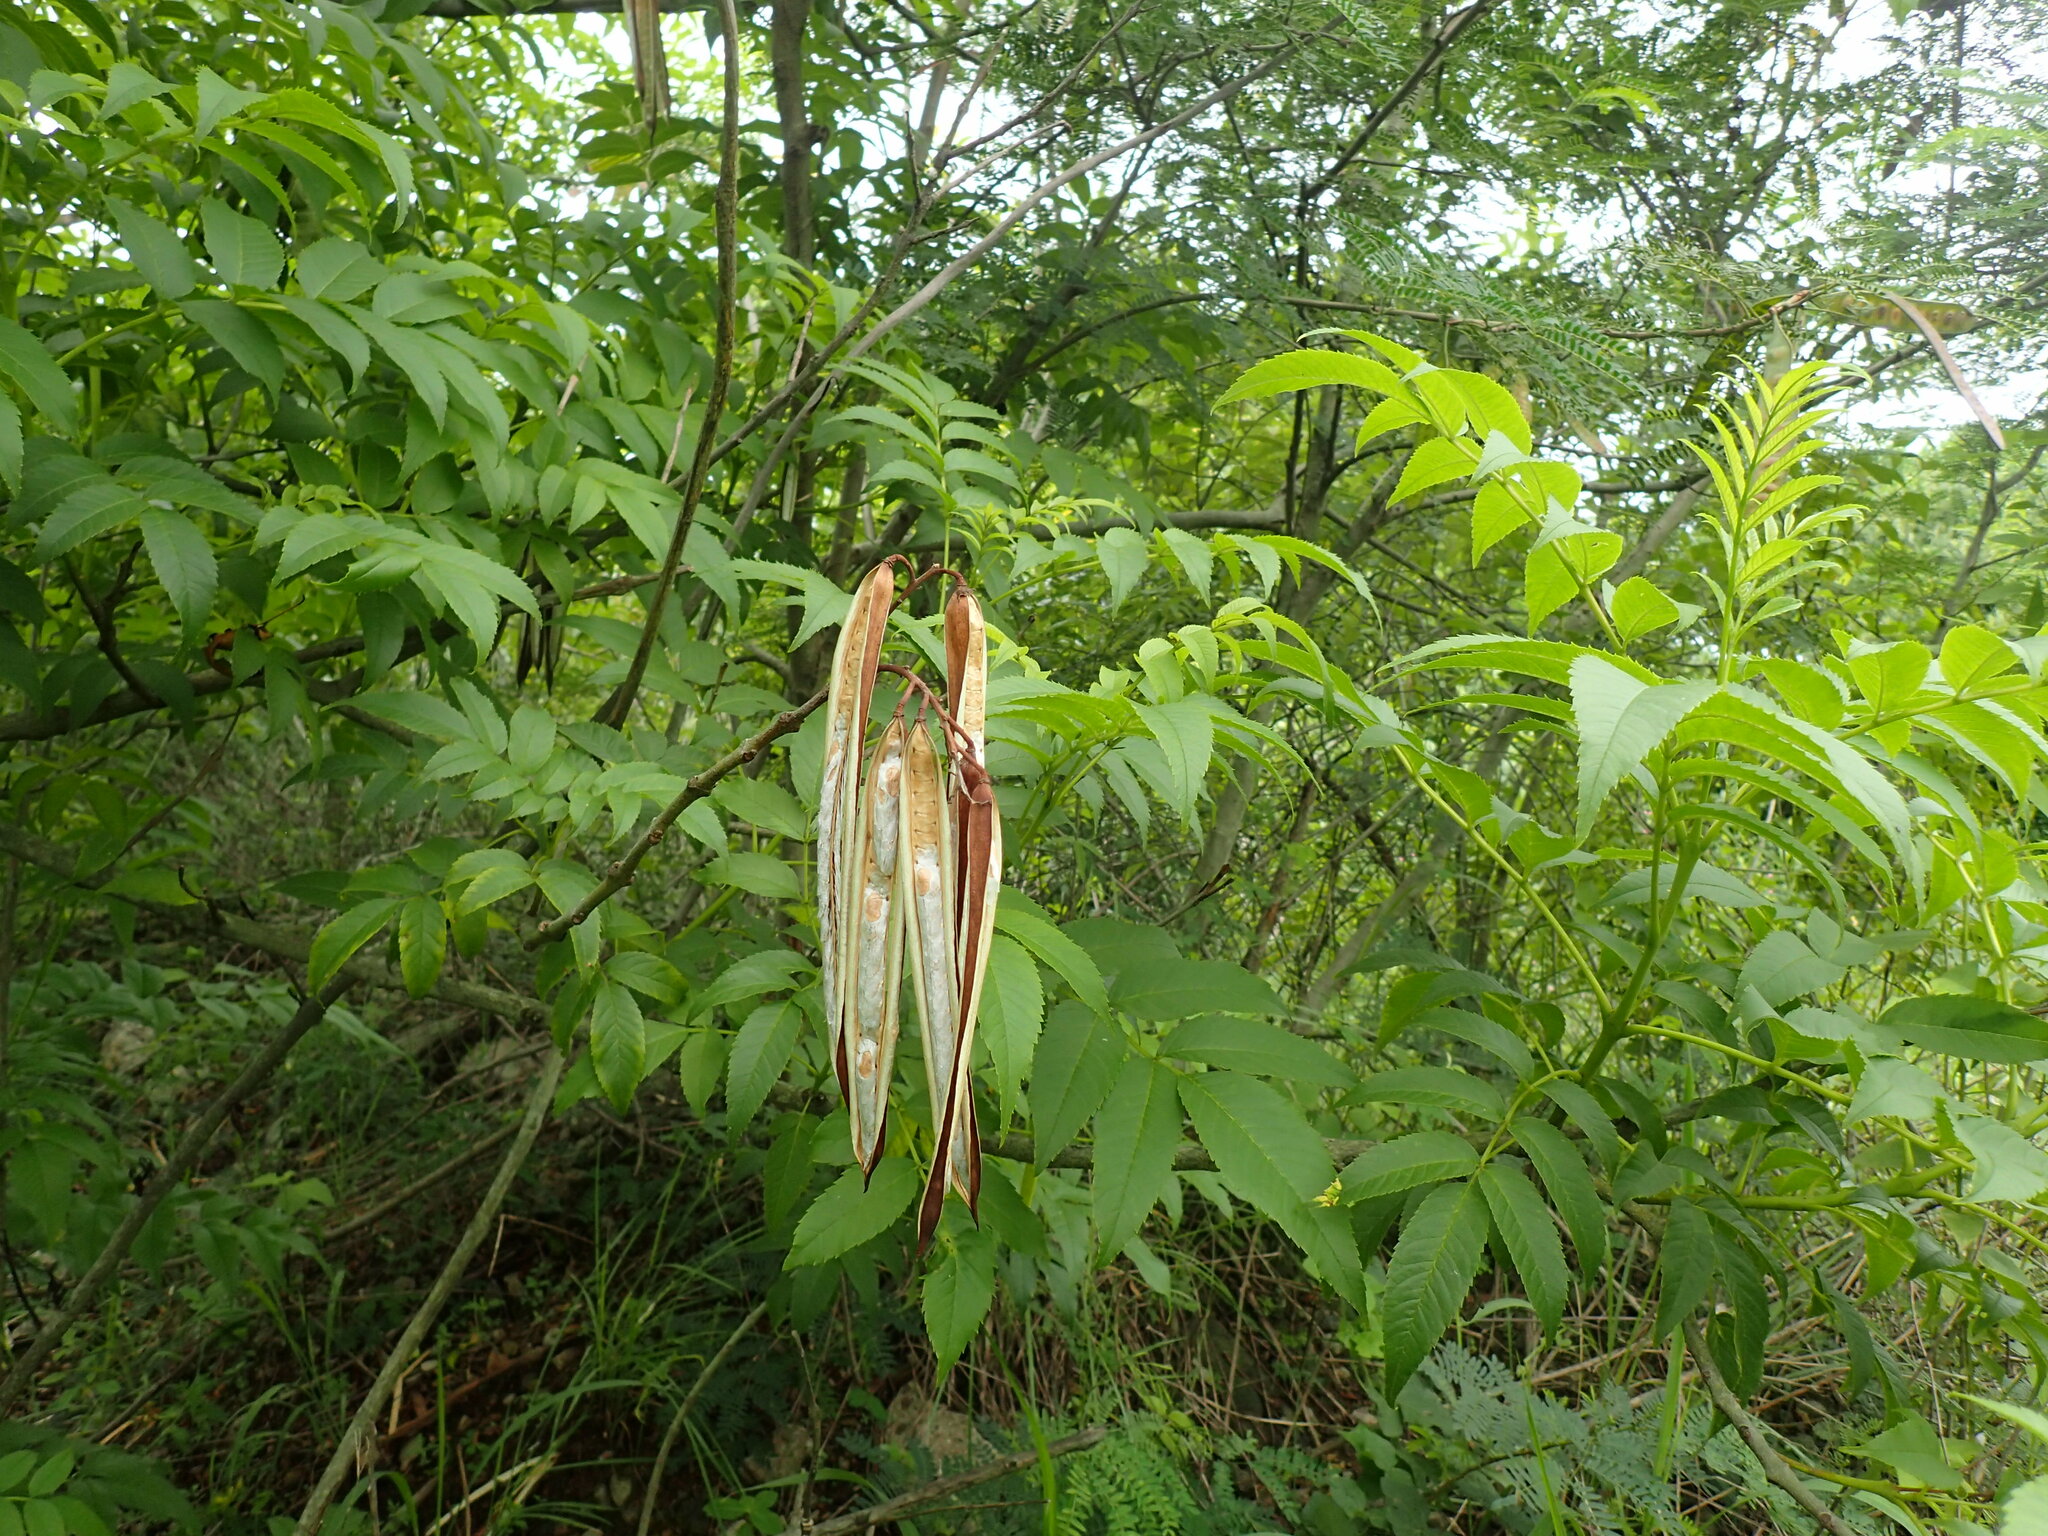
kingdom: Plantae
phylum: Tracheophyta
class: Magnoliopsida
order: Lamiales
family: Bignoniaceae
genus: Tecoma
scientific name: Tecoma stans
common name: Yellow trumpetbush
